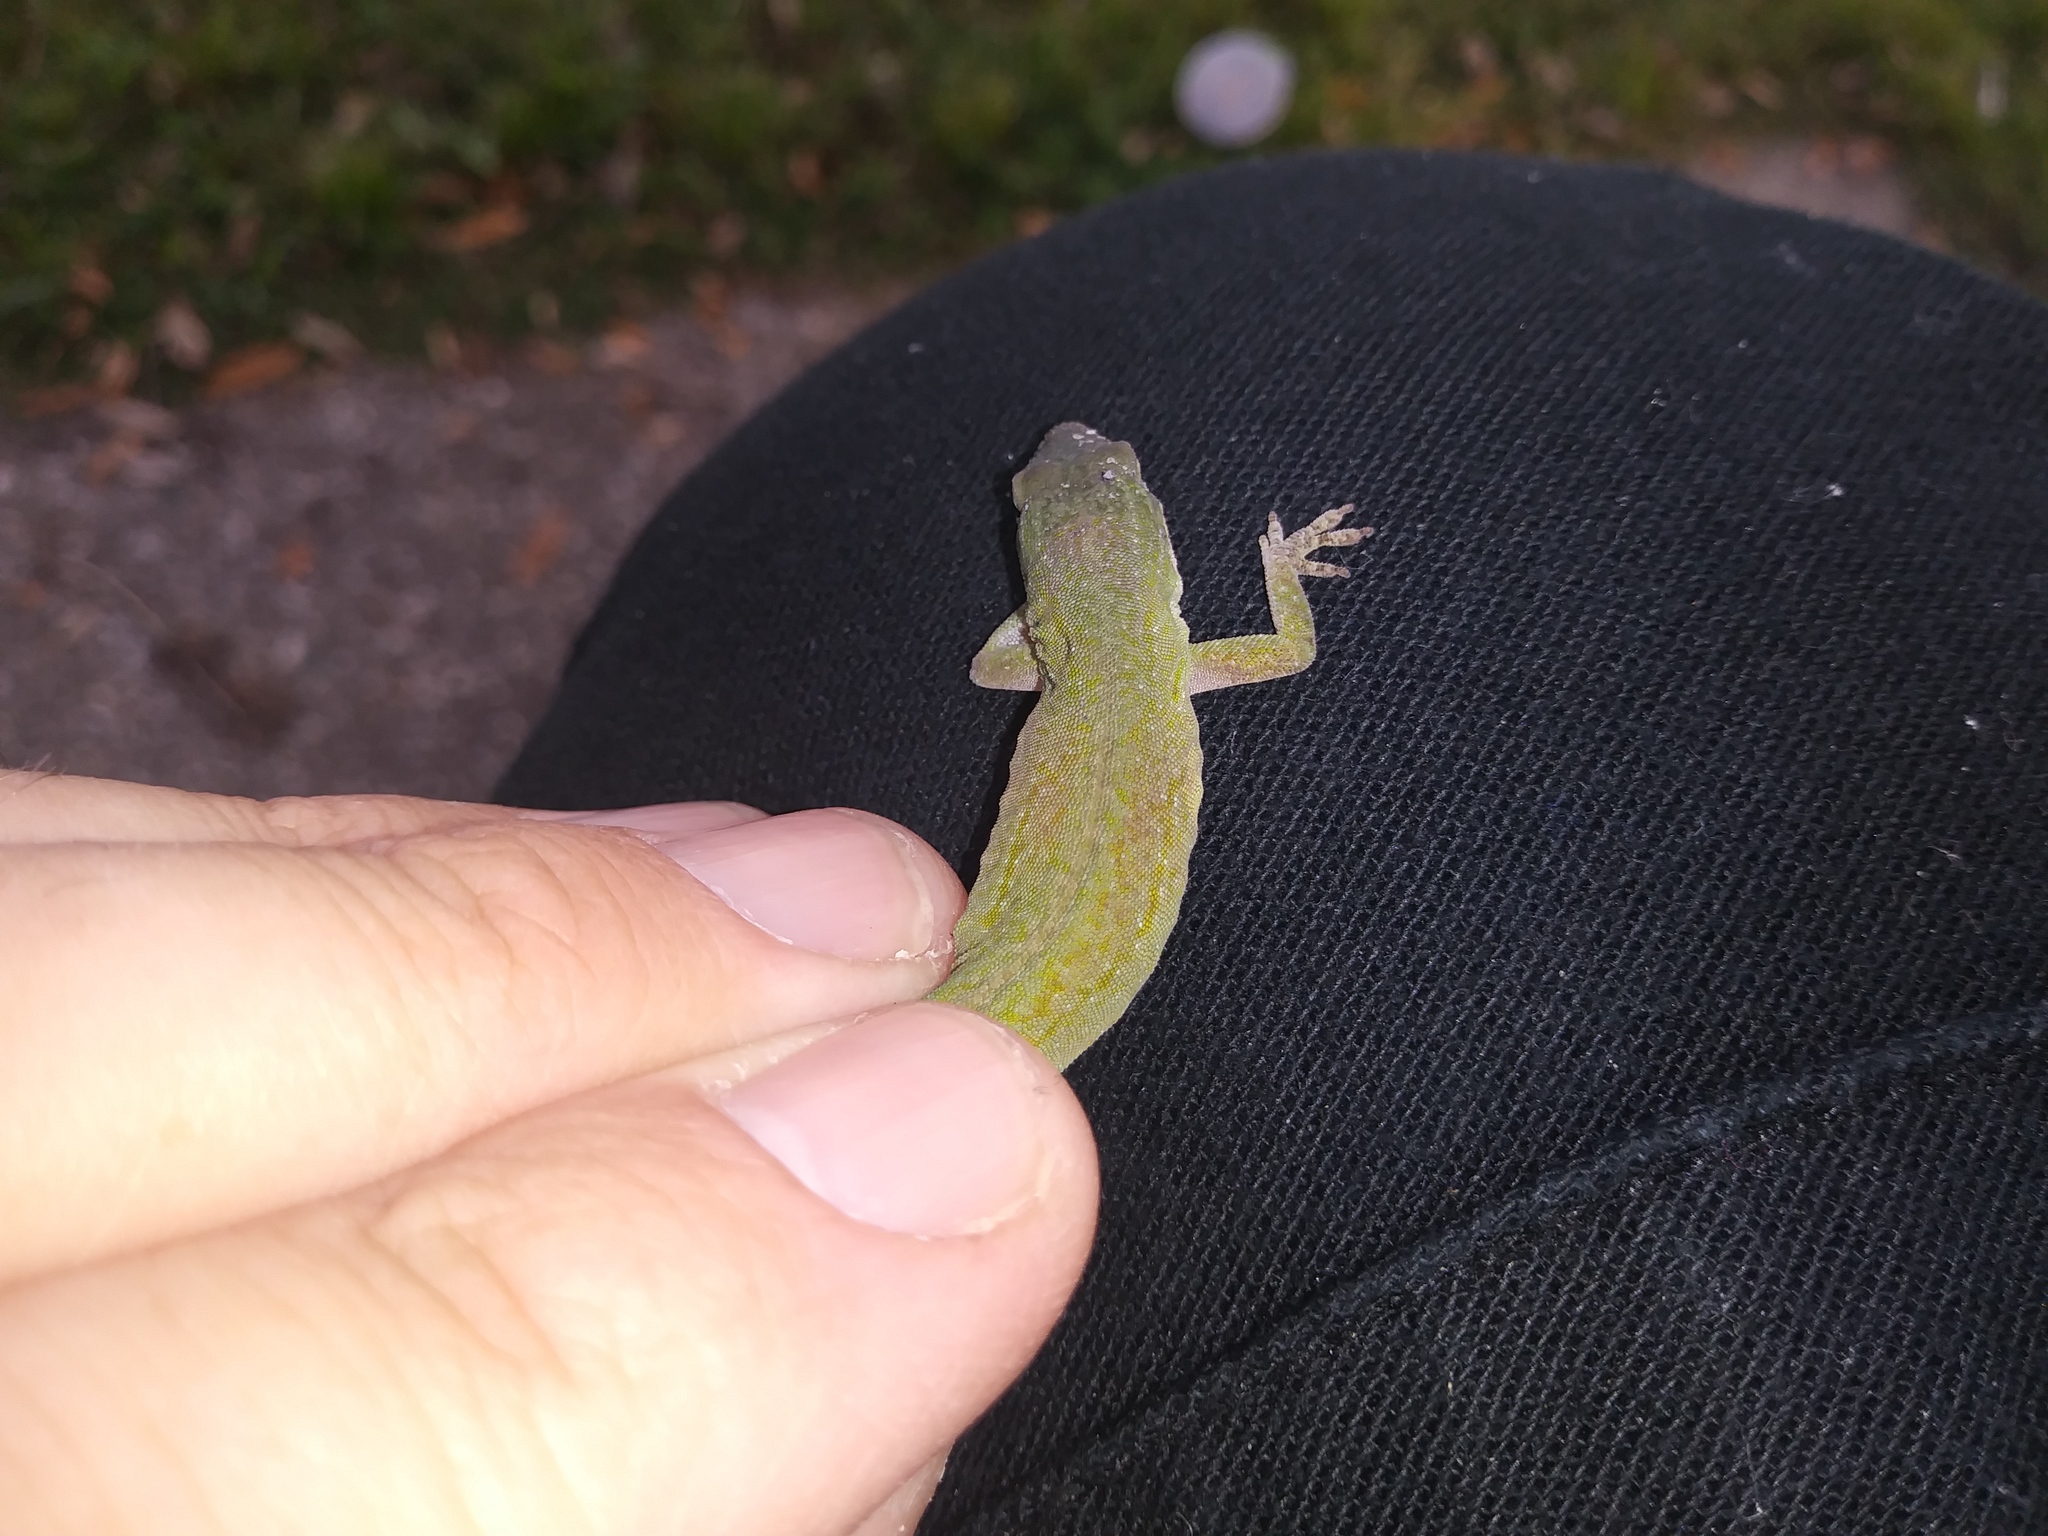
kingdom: Animalia
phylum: Chordata
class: Squamata
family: Dactyloidae
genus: Anolis
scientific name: Anolis carolinensis
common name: Green anole
